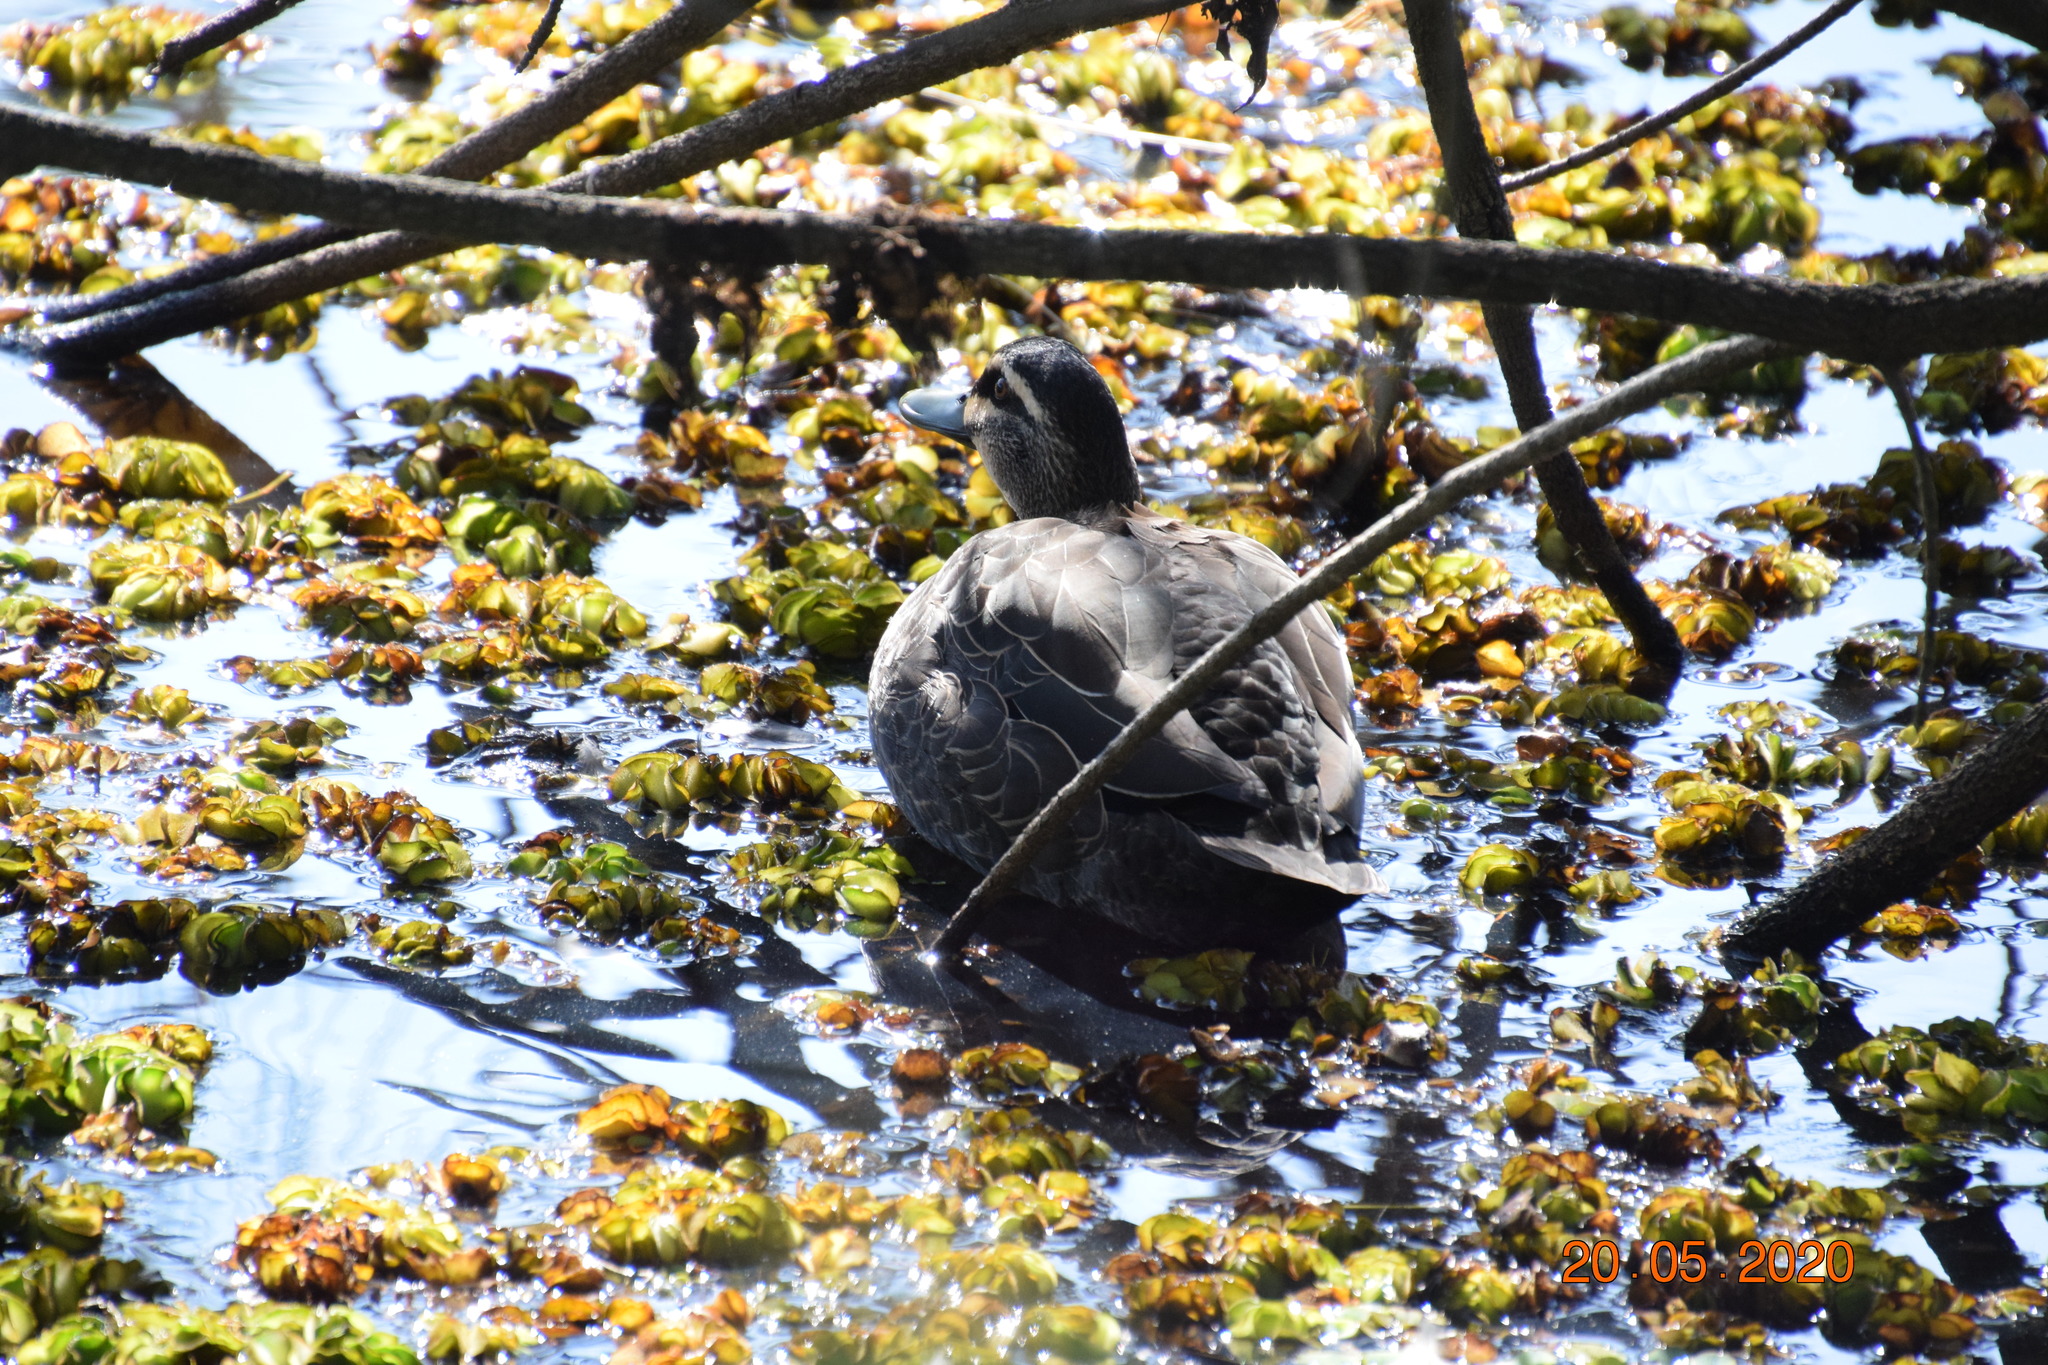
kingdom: Animalia
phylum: Chordata
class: Aves
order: Anseriformes
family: Anatidae
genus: Anas
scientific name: Anas superciliosa
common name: Pacific black duck
